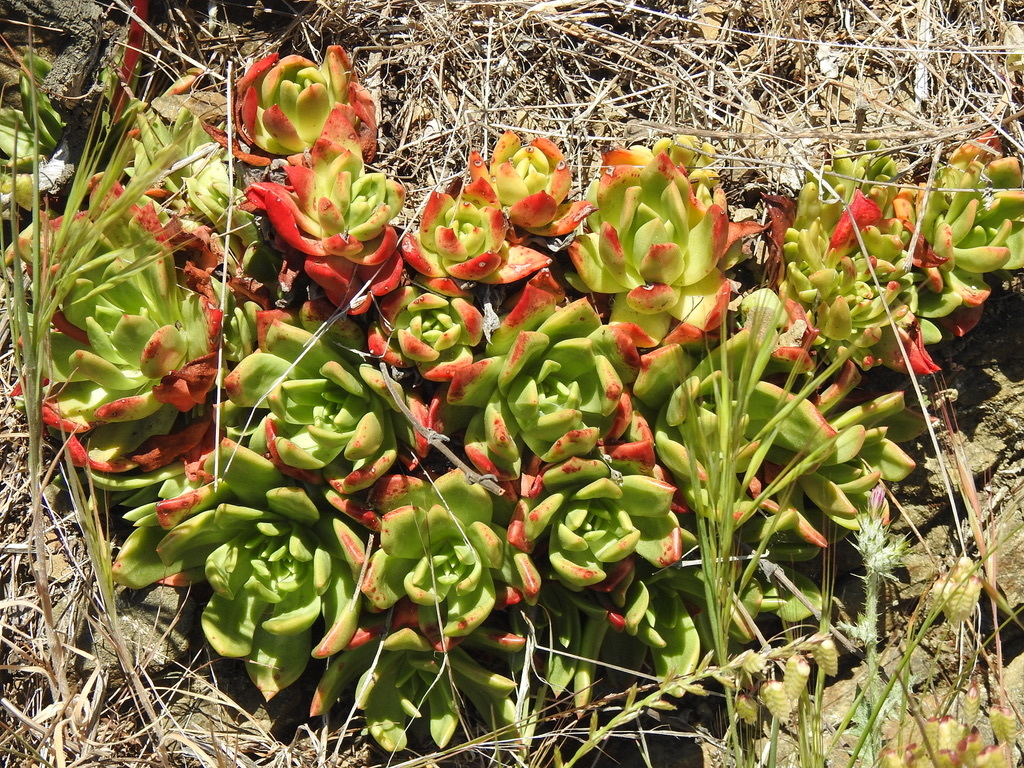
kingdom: Plantae
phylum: Tracheophyta
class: Magnoliopsida
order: Saxifragales
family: Crassulaceae
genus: Dudleya
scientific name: Dudleya farinosa
